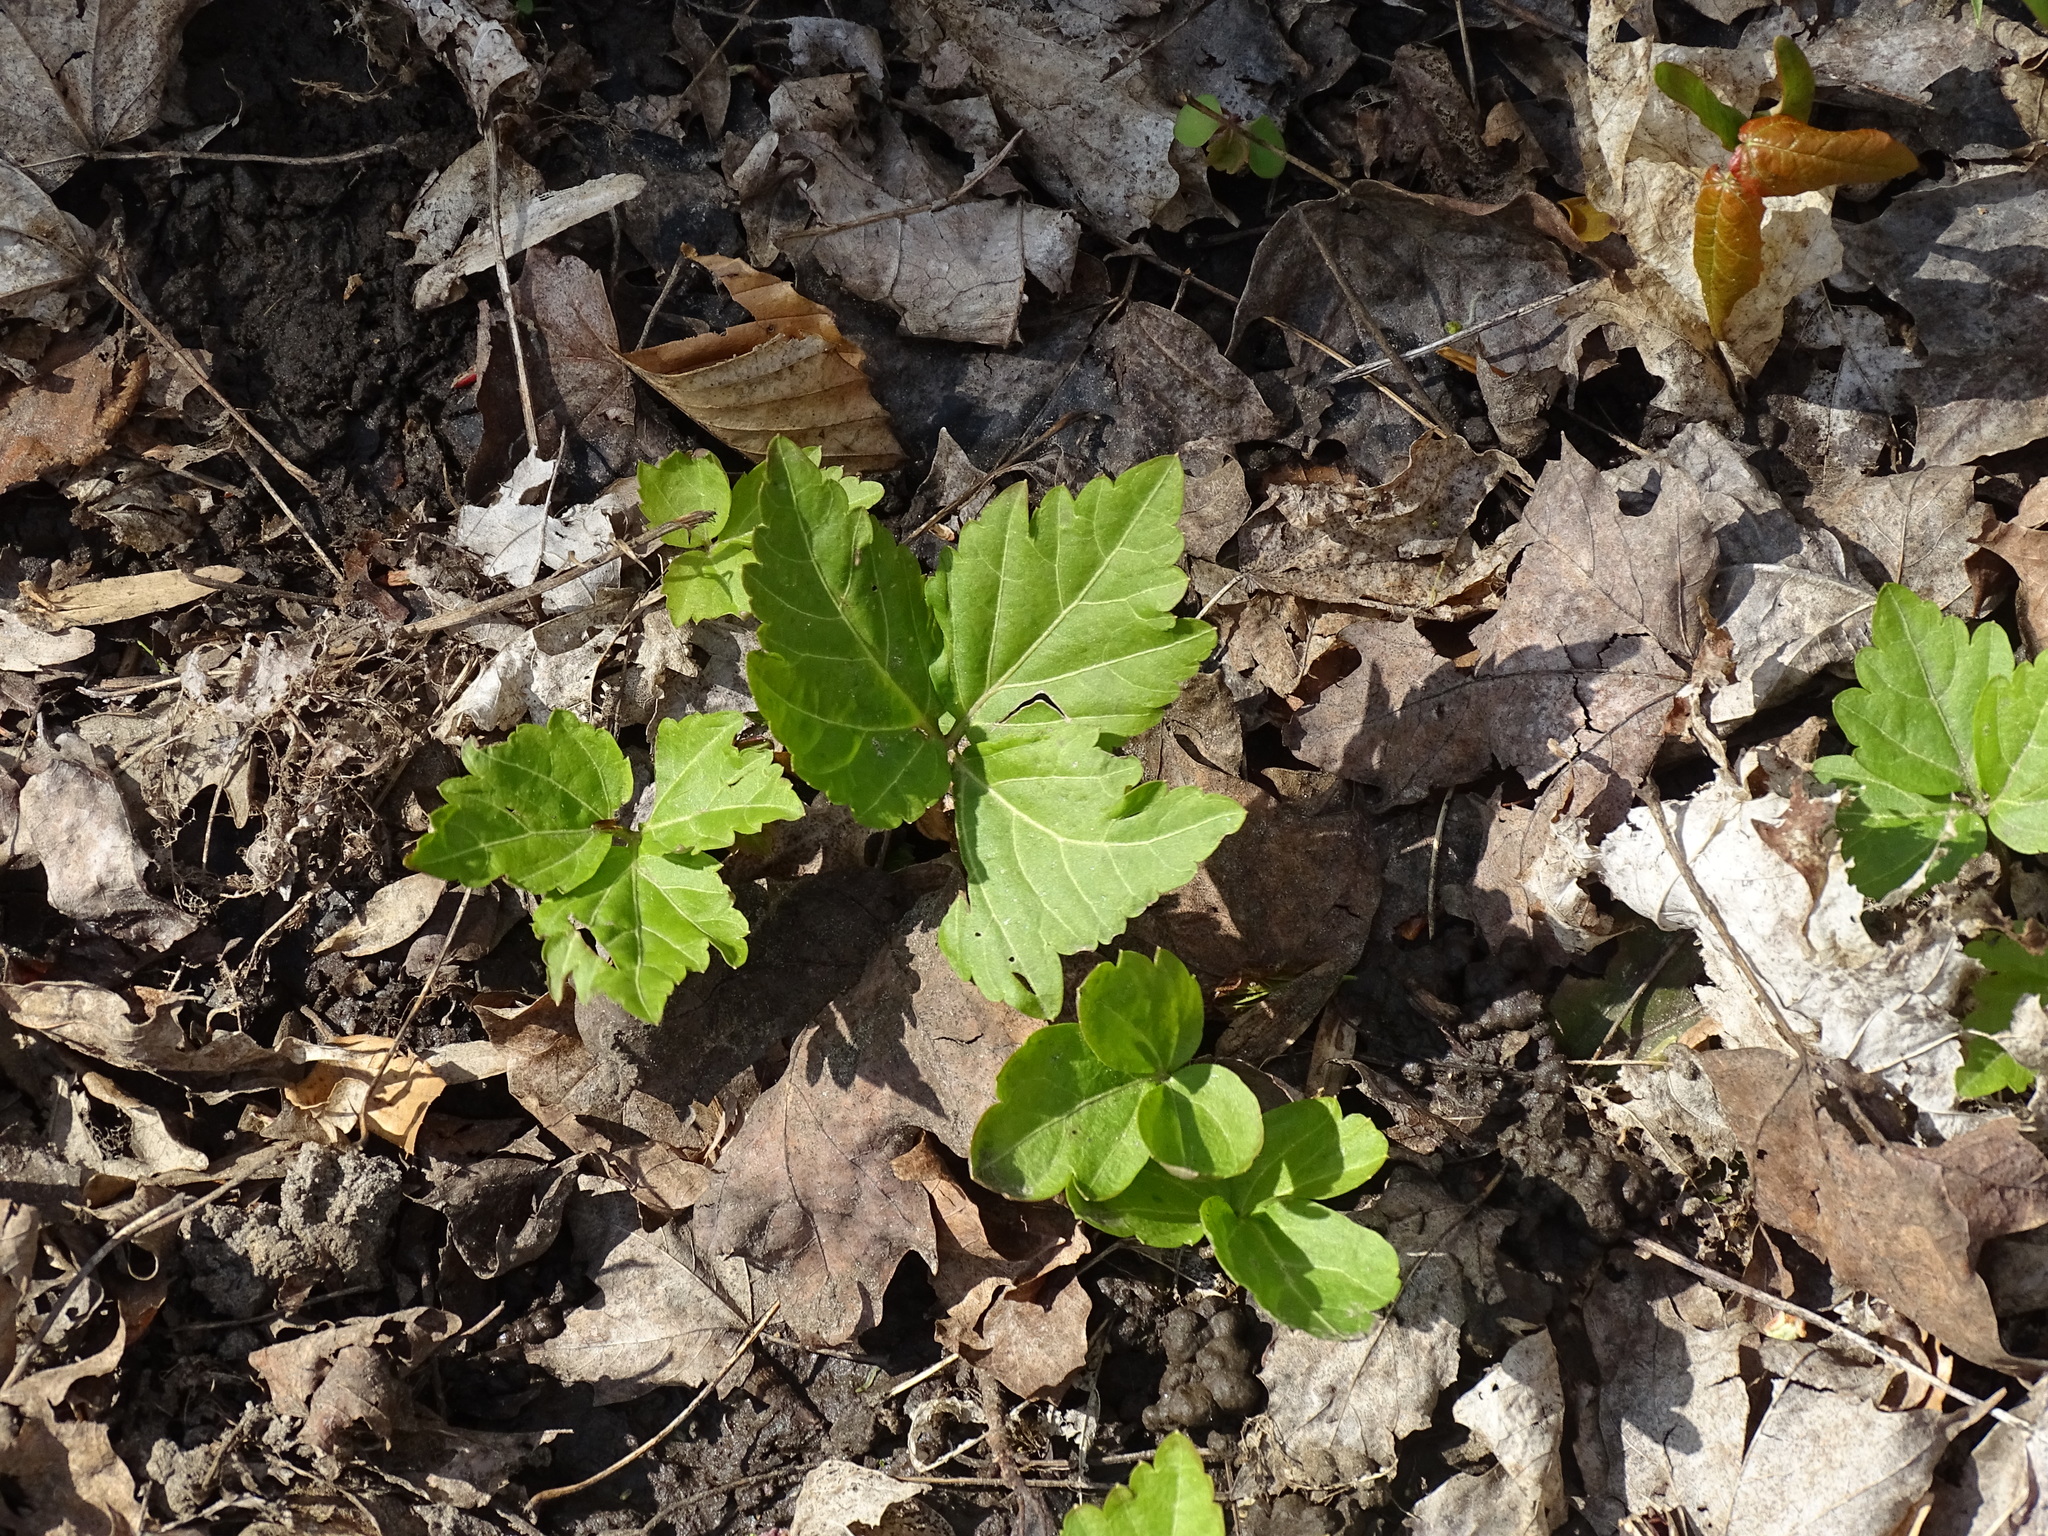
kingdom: Plantae
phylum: Tracheophyta
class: Magnoliopsida
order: Brassicales
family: Brassicaceae
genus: Cardamine
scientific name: Cardamine diphylla
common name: Broad-leaved toothwort
